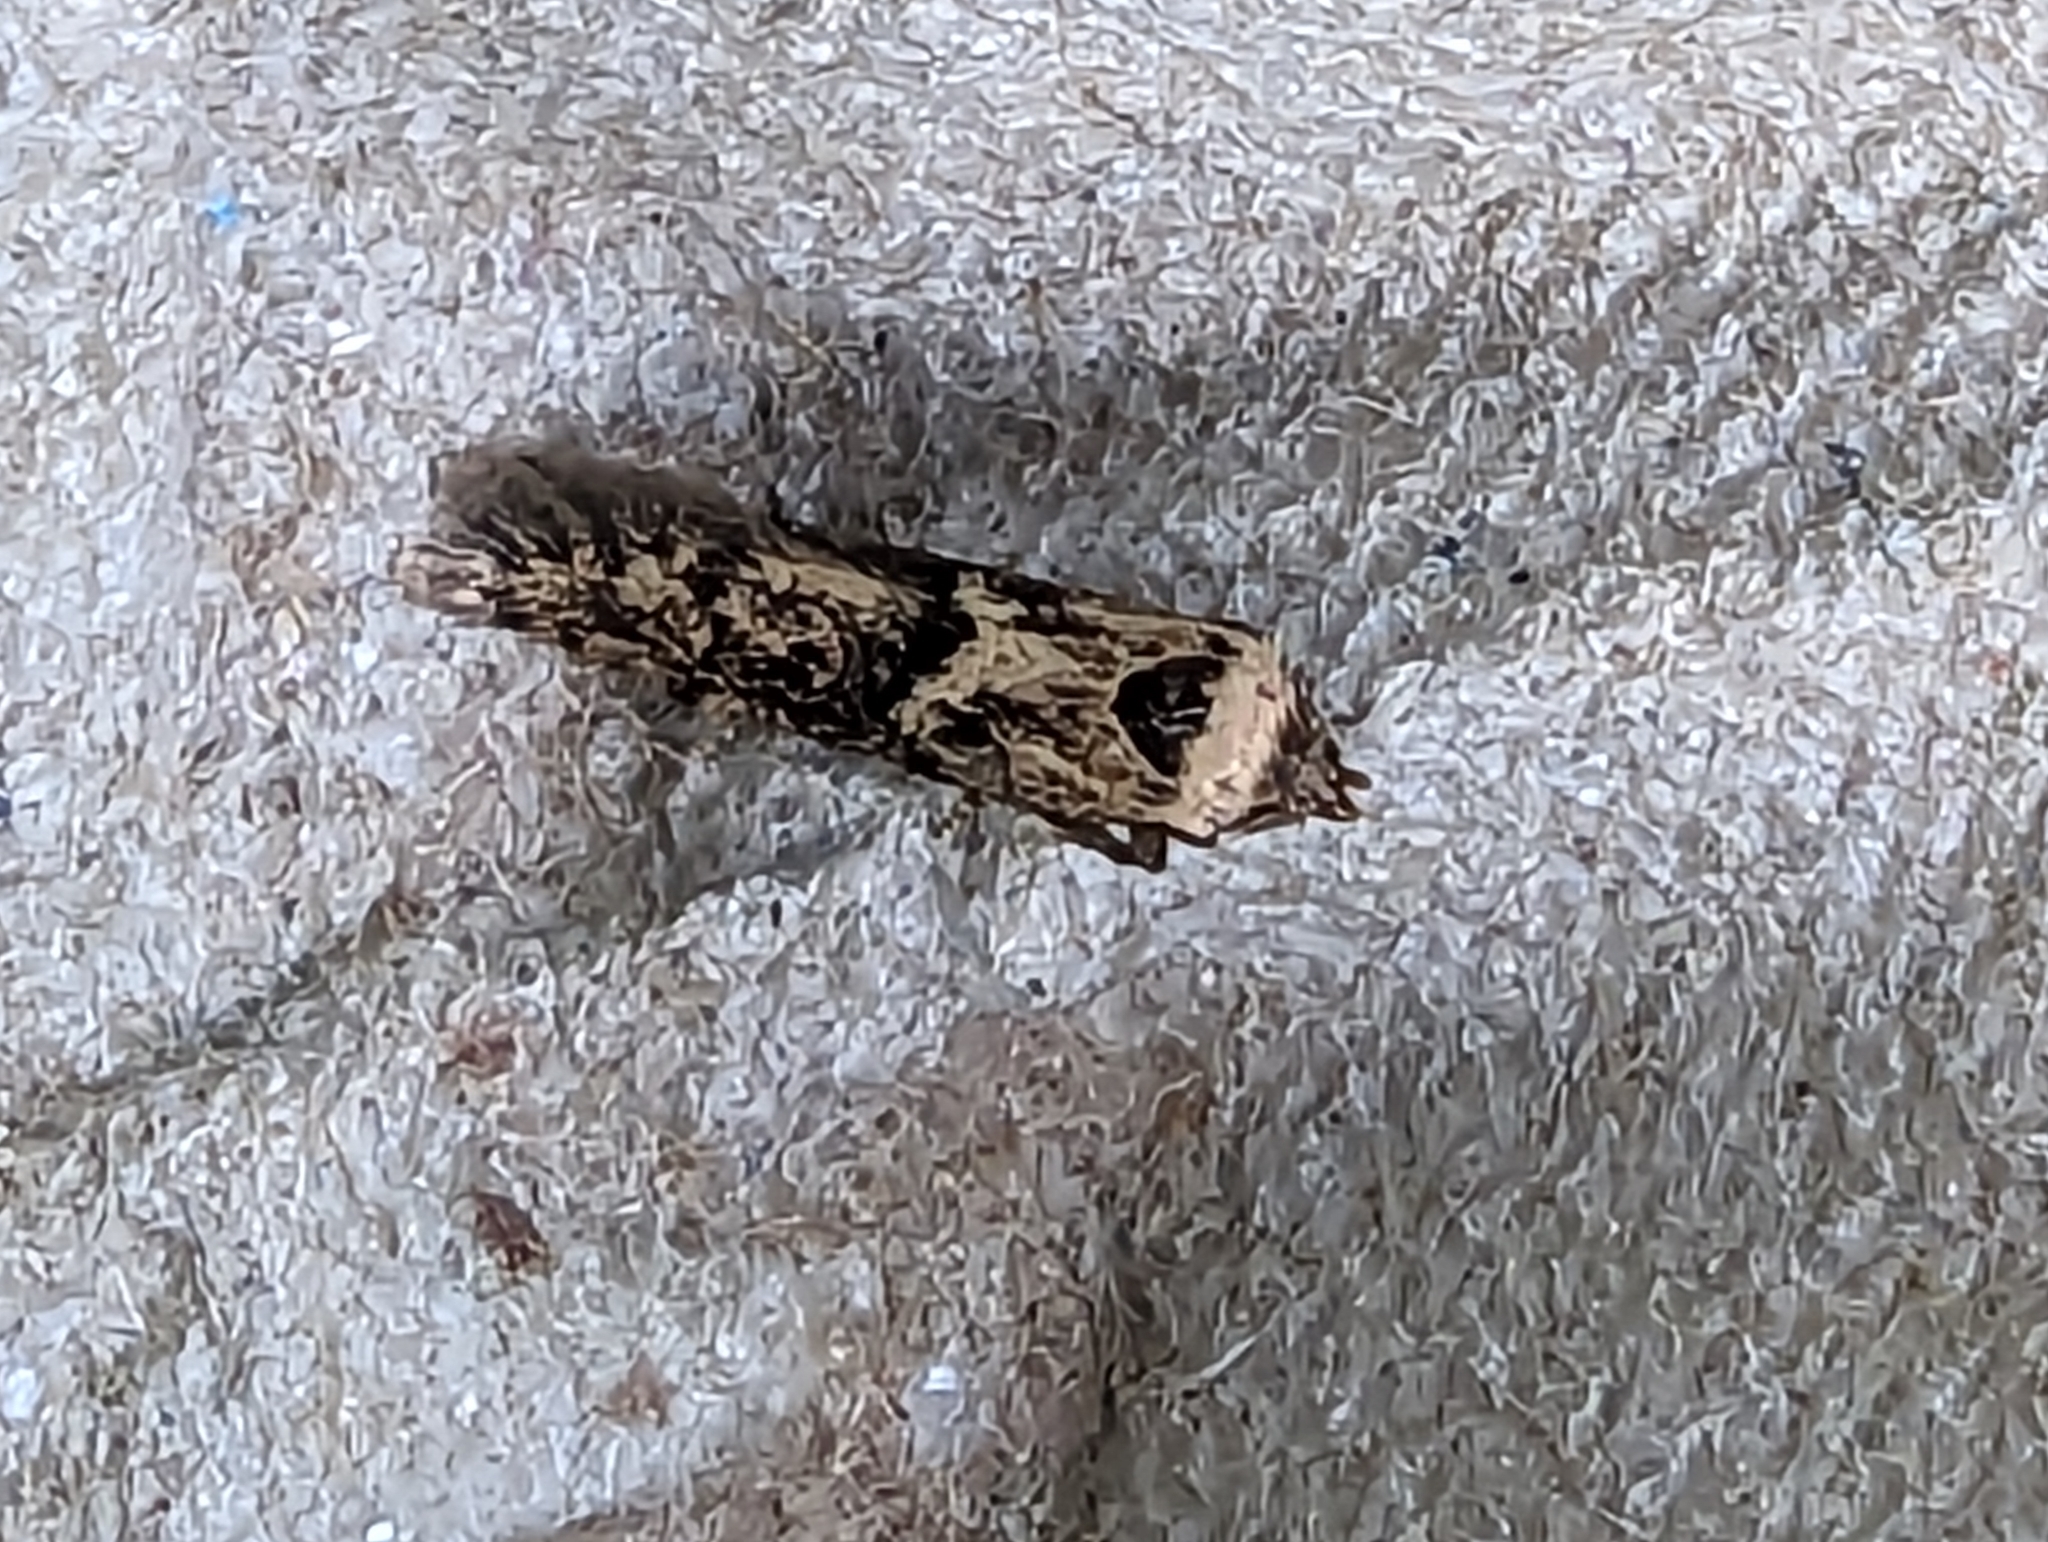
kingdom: Animalia
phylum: Arthropoda
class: Insecta
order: Lepidoptera
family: Blastobasidae
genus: Blastobasis
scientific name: Blastobasis adustella
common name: Dingy dowd
